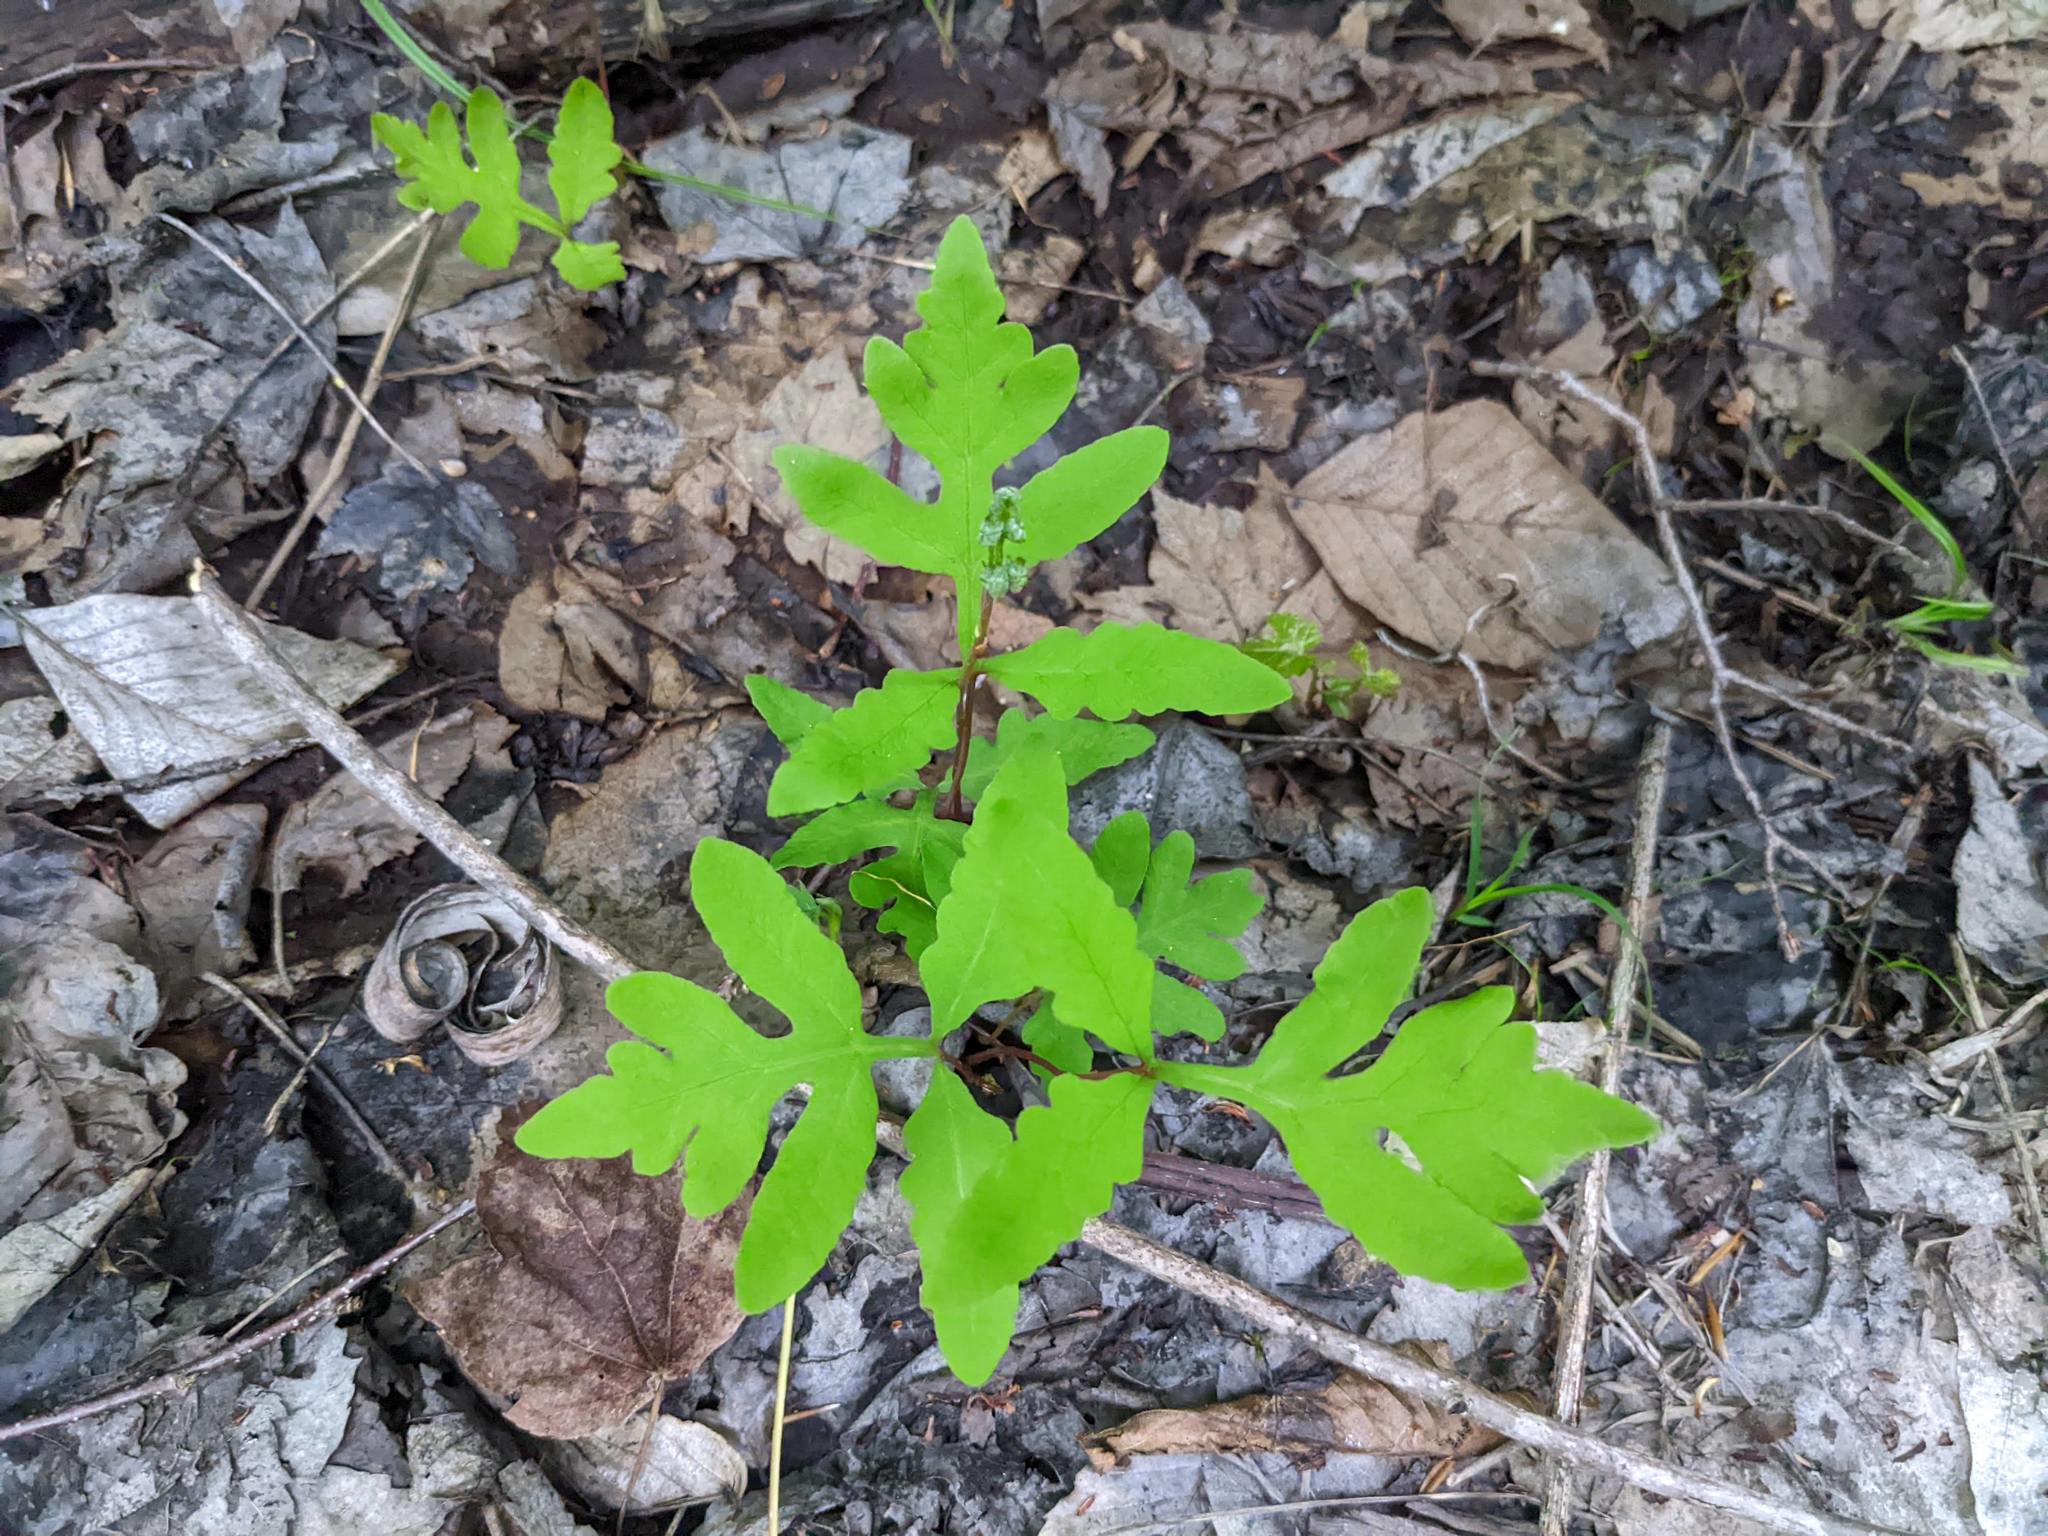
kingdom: Plantae
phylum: Tracheophyta
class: Polypodiopsida
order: Polypodiales
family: Onocleaceae
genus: Onoclea
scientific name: Onoclea sensibilis
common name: Sensitive fern
